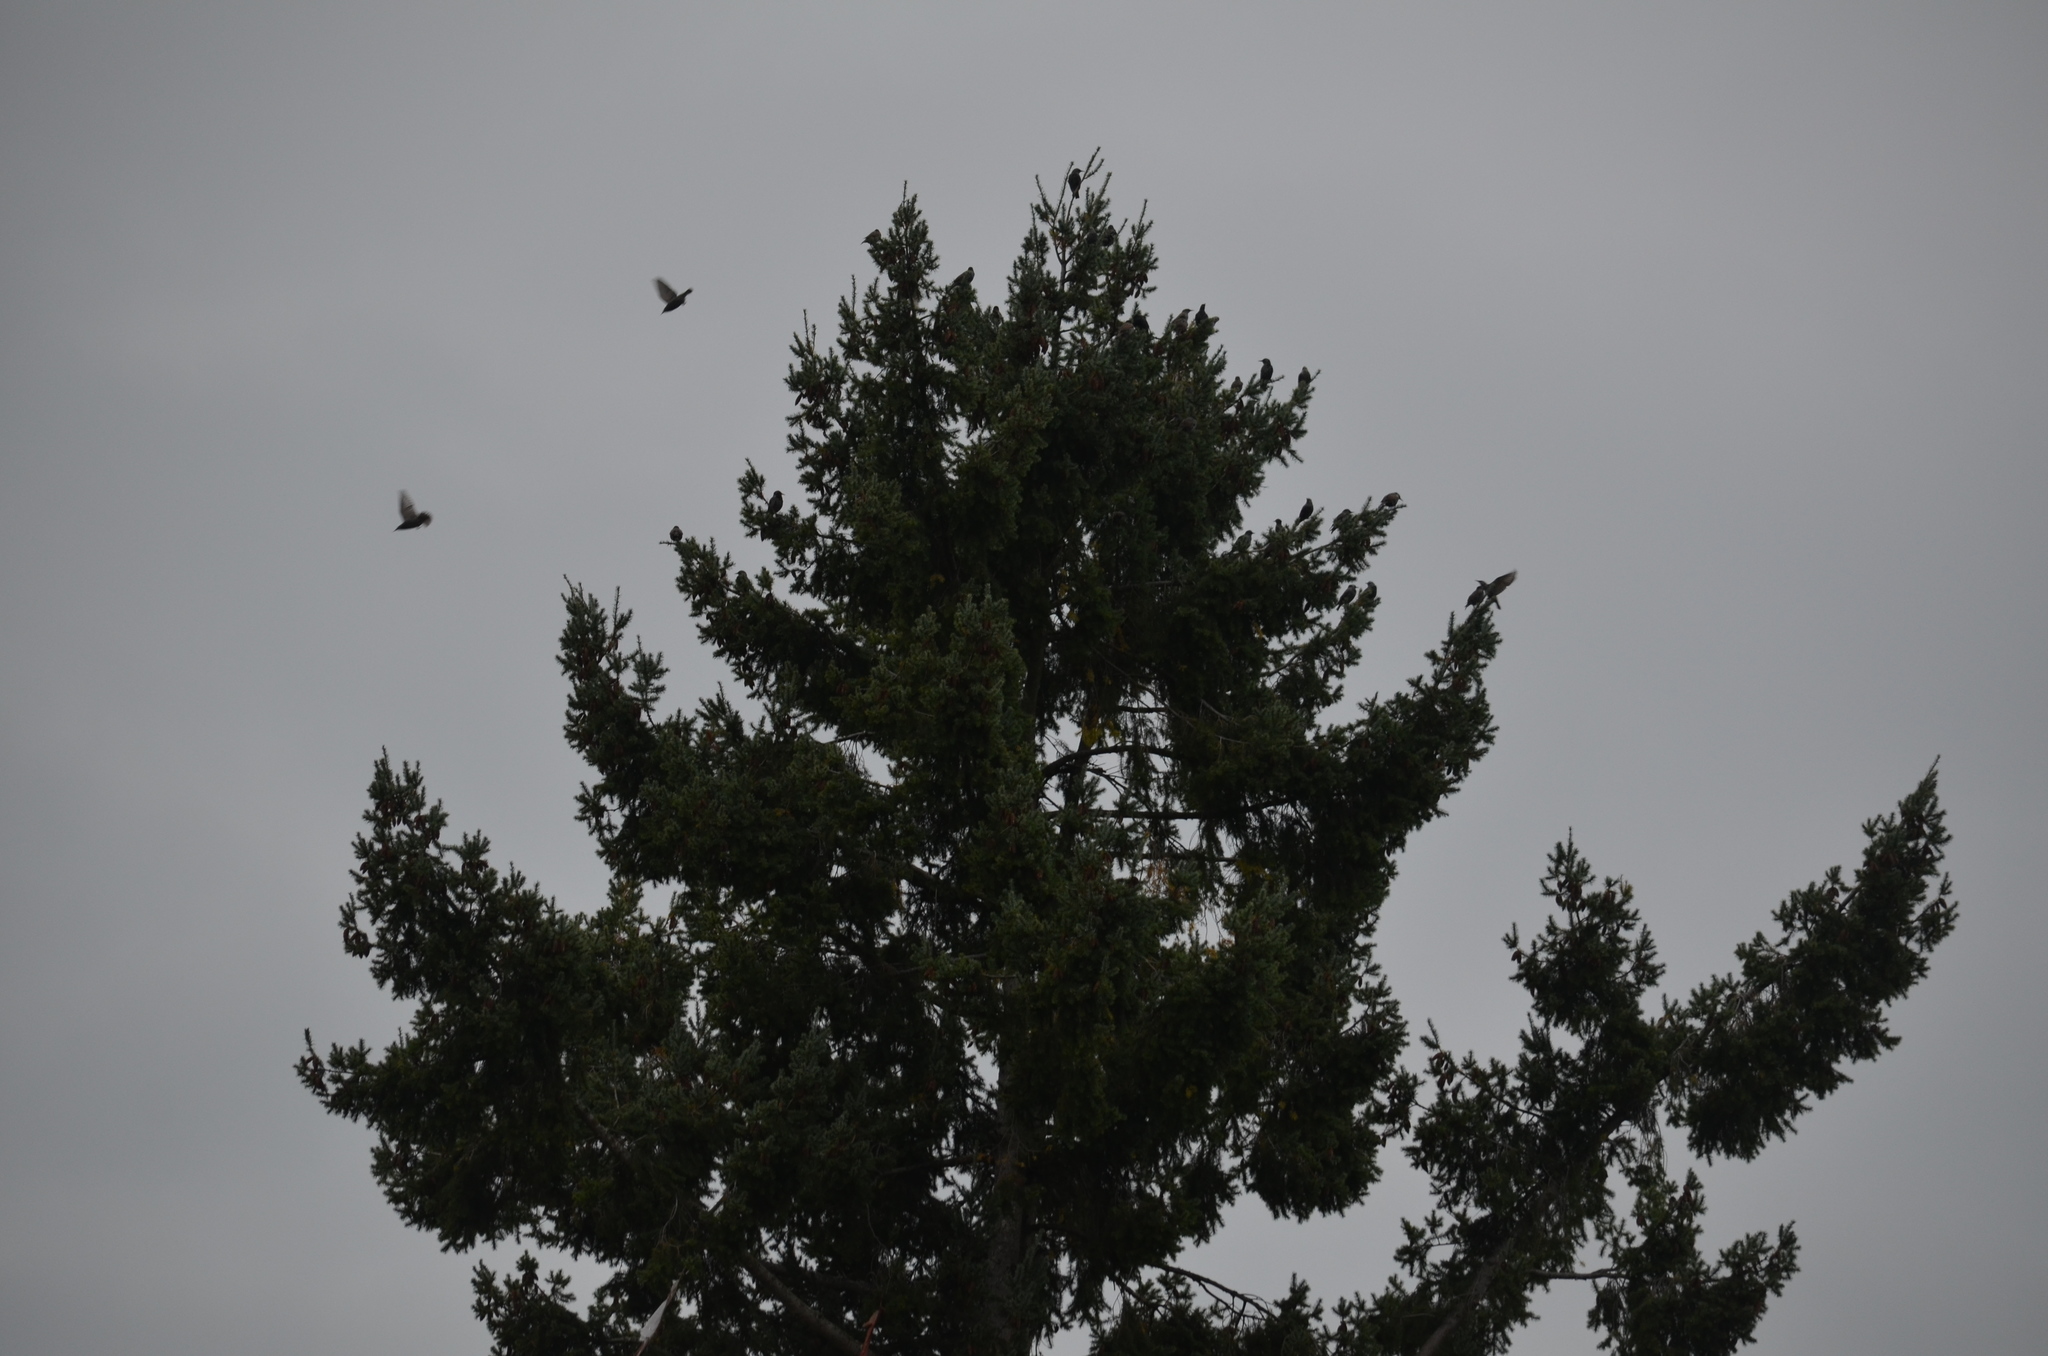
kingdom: Animalia
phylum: Chordata
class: Aves
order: Passeriformes
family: Sturnidae
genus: Sturnus
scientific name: Sturnus vulgaris
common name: Common starling
